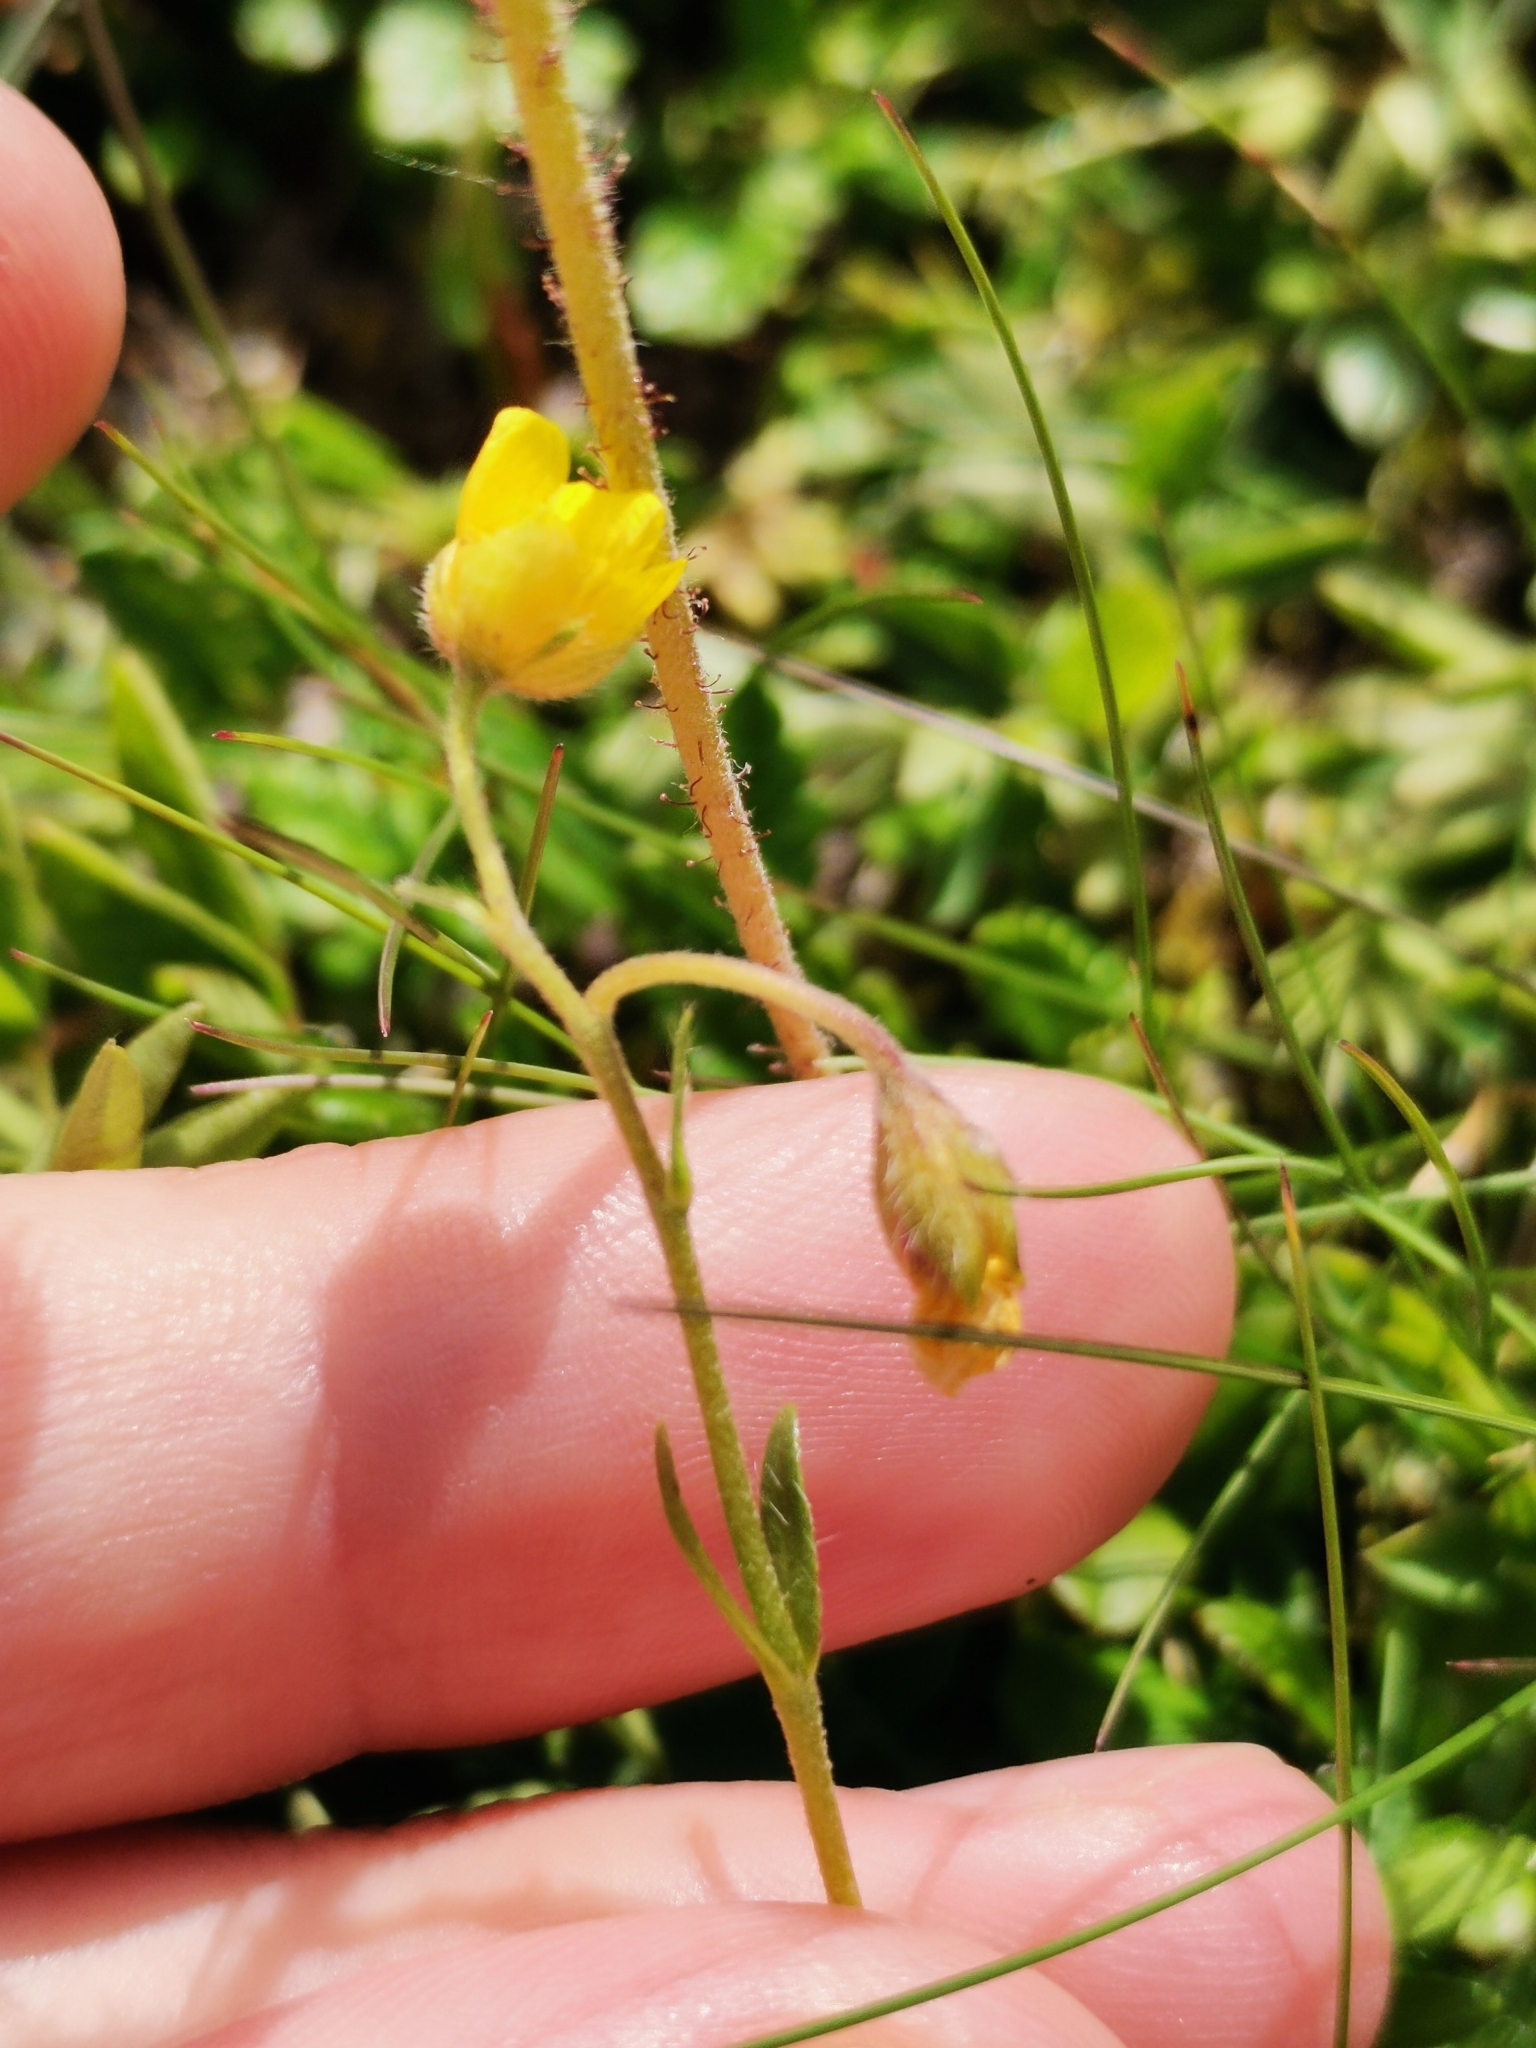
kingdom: Plantae
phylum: Tracheophyta
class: Magnoliopsida
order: Malvales
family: Cistaceae
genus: Helianthemum
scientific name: Helianthemum alpestre
